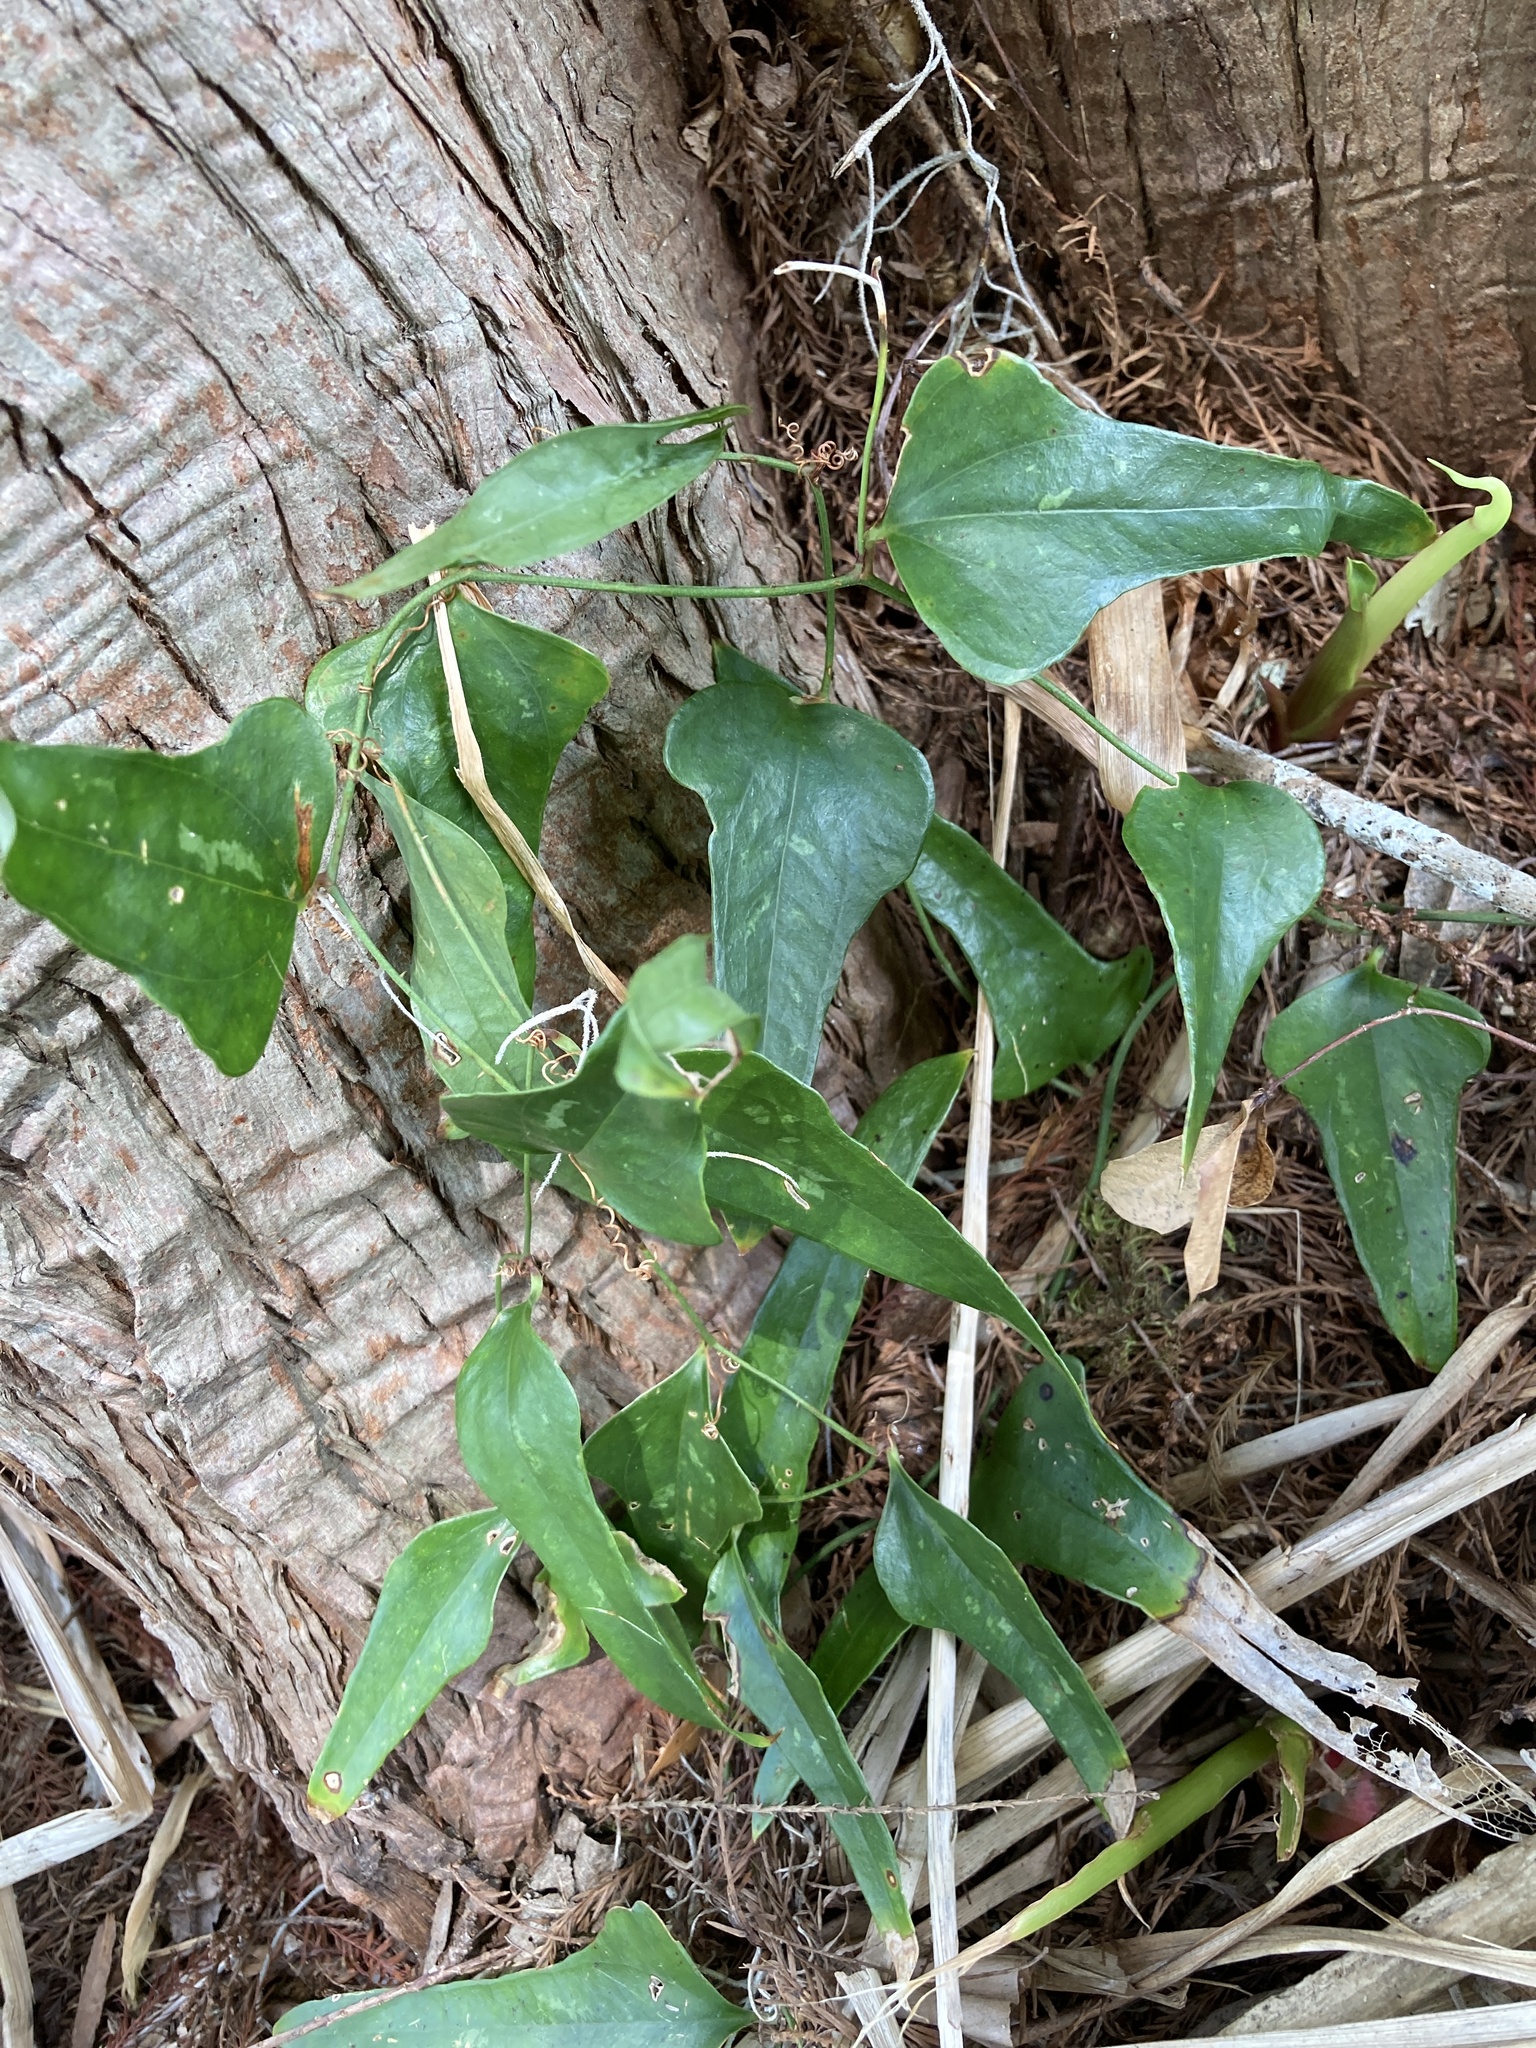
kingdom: Plantae
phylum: Tracheophyta
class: Liliopsida
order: Liliales
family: Smilacaceae
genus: Smilax
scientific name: Smilax auriculata
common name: Wild bamboo
